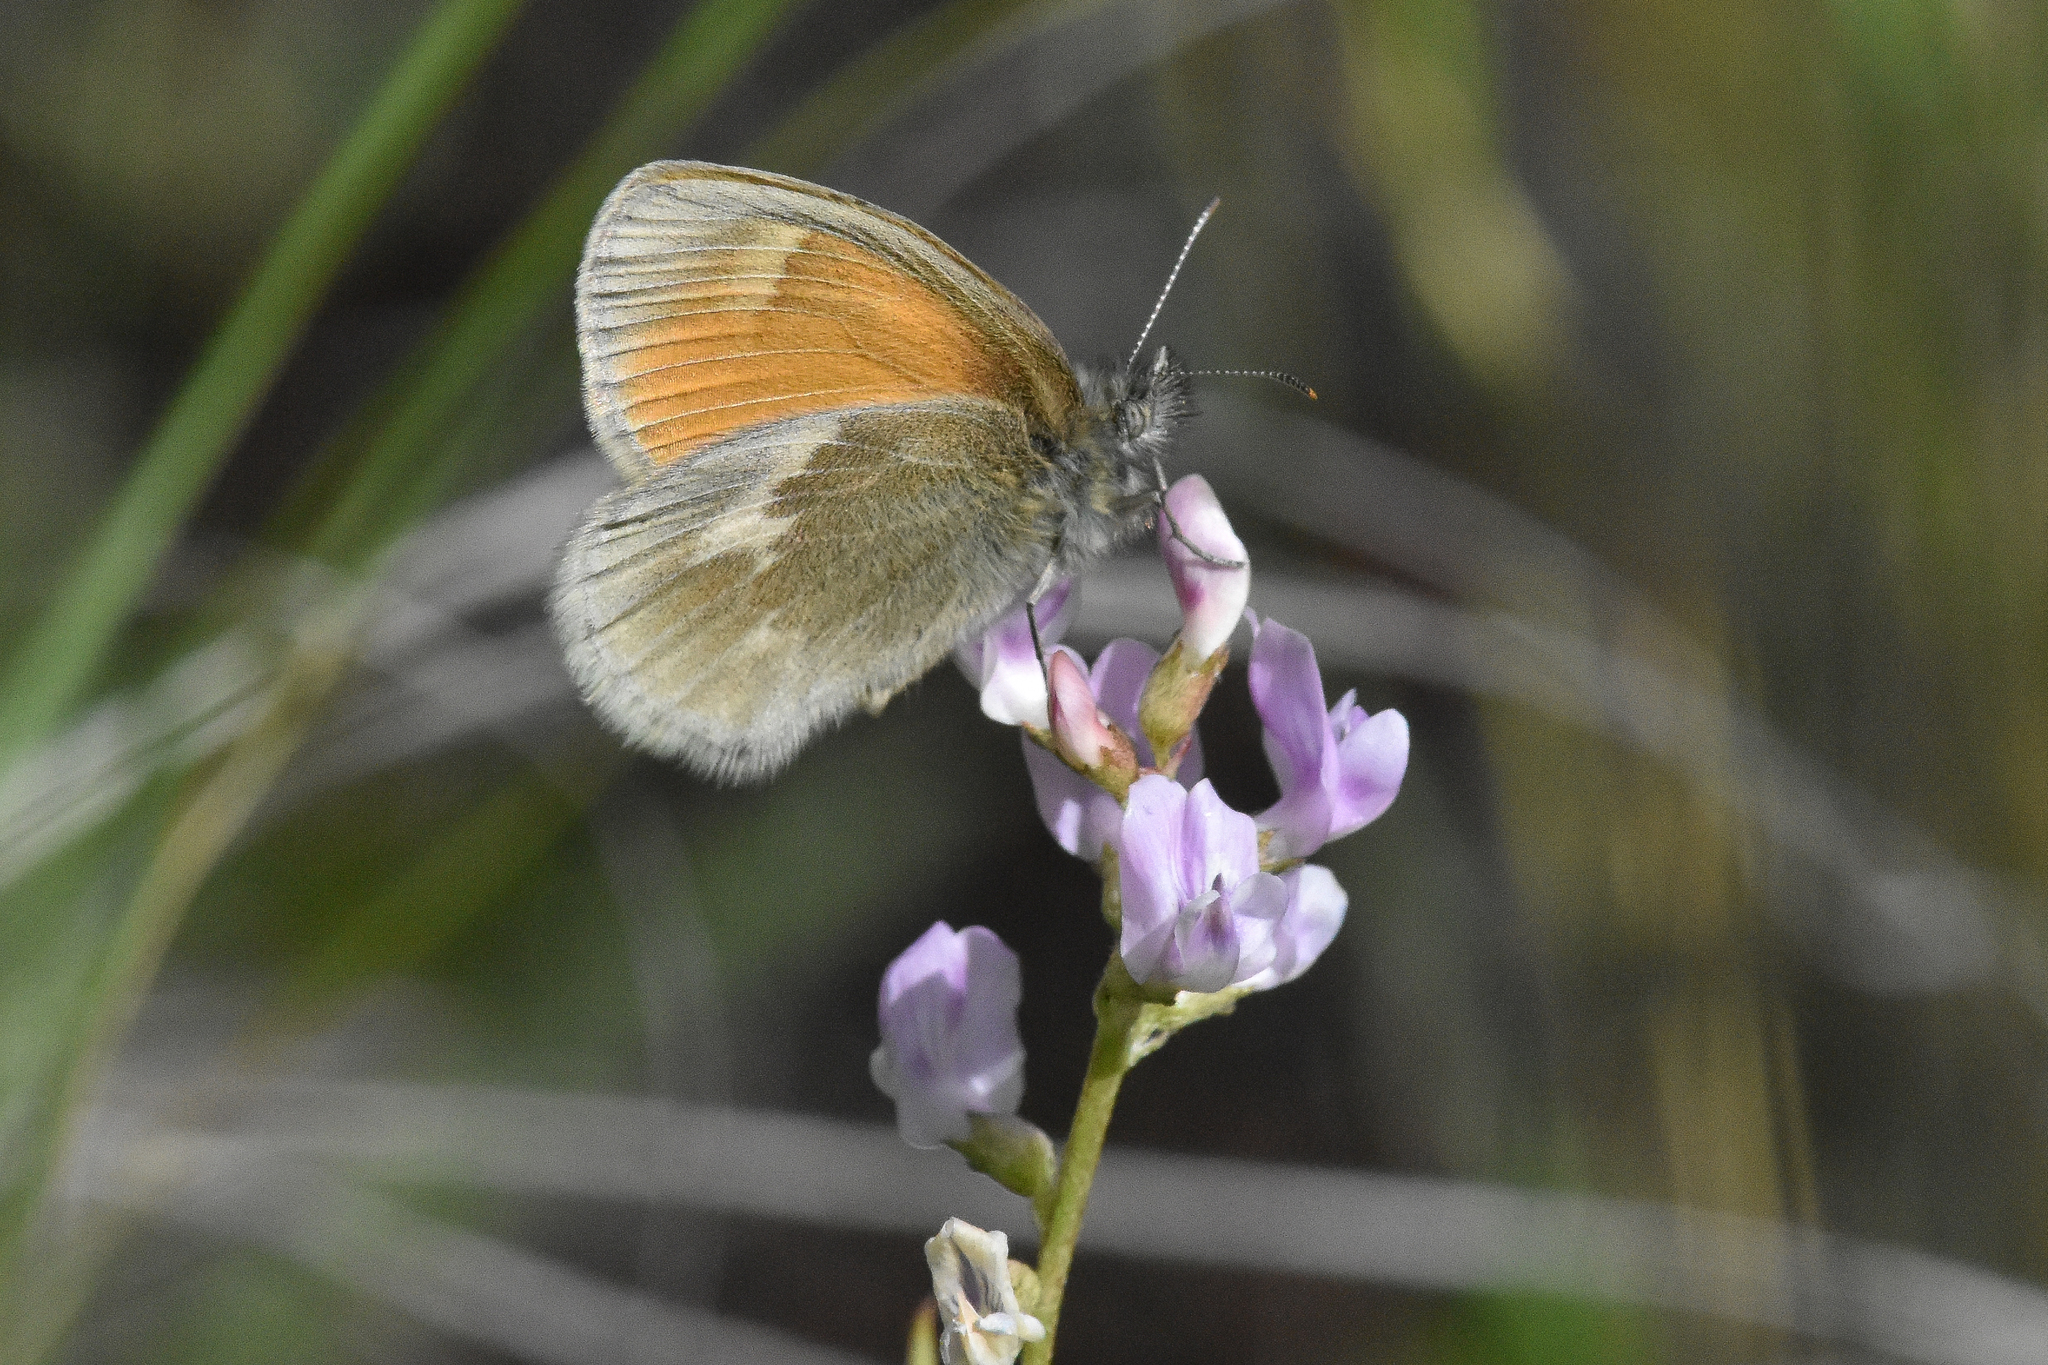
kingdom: Animalia
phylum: Arthropoda
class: Insecta
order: Lepidoptera
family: Nymphalidae
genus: Coenonympha
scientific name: Coenonympha california
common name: Common ringlet
